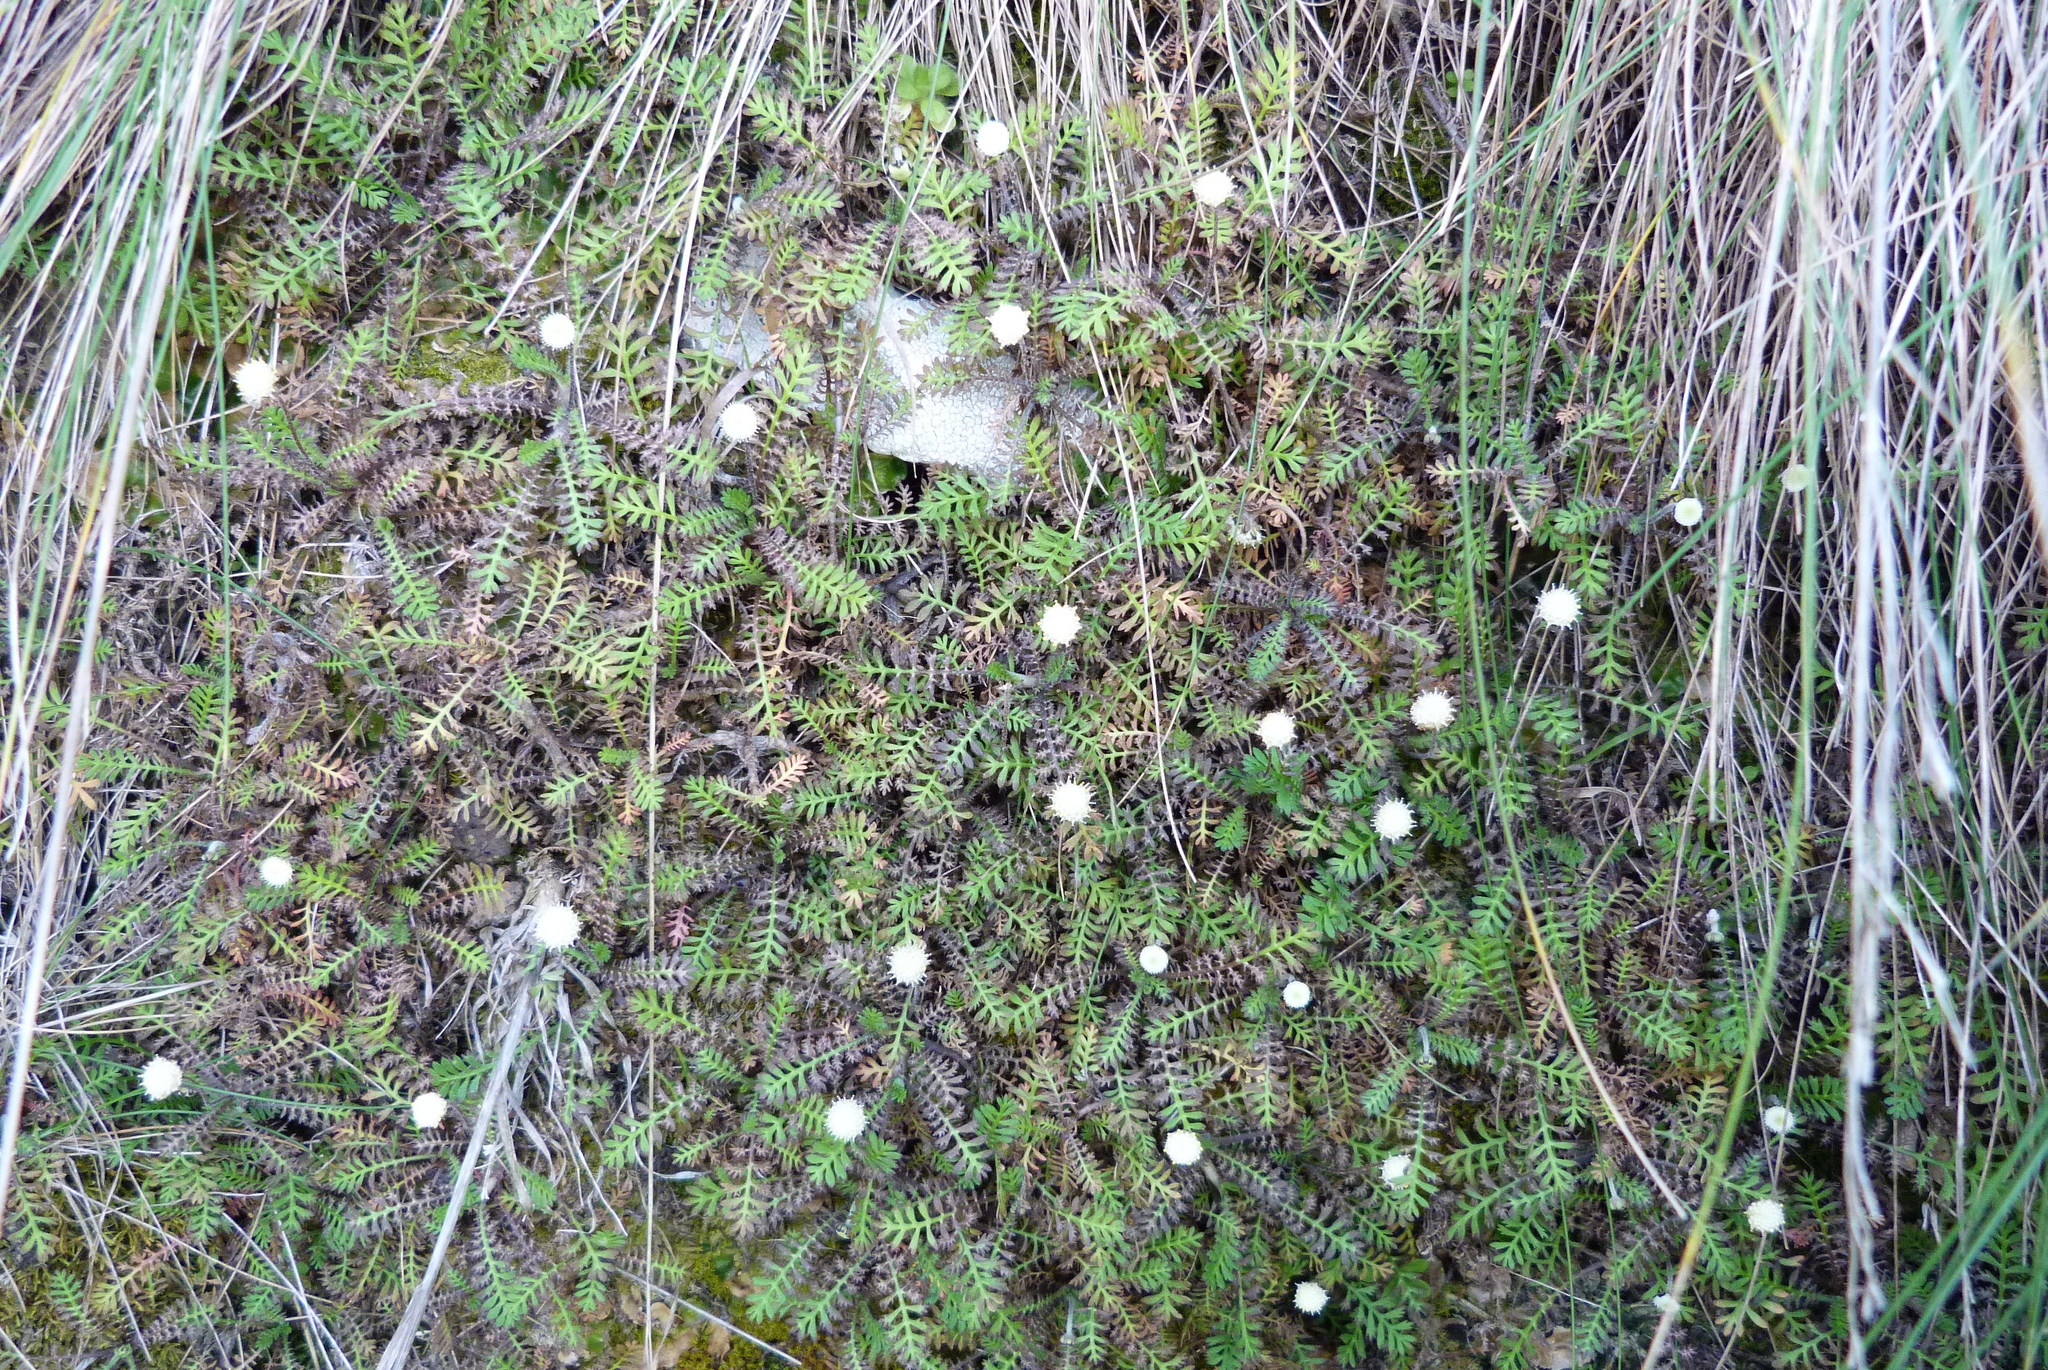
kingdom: Plantae
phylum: Tracheophyta
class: Magnoliopsida
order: Asterales
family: Asteraceae
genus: Leptinella
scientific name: Leptinella minor
